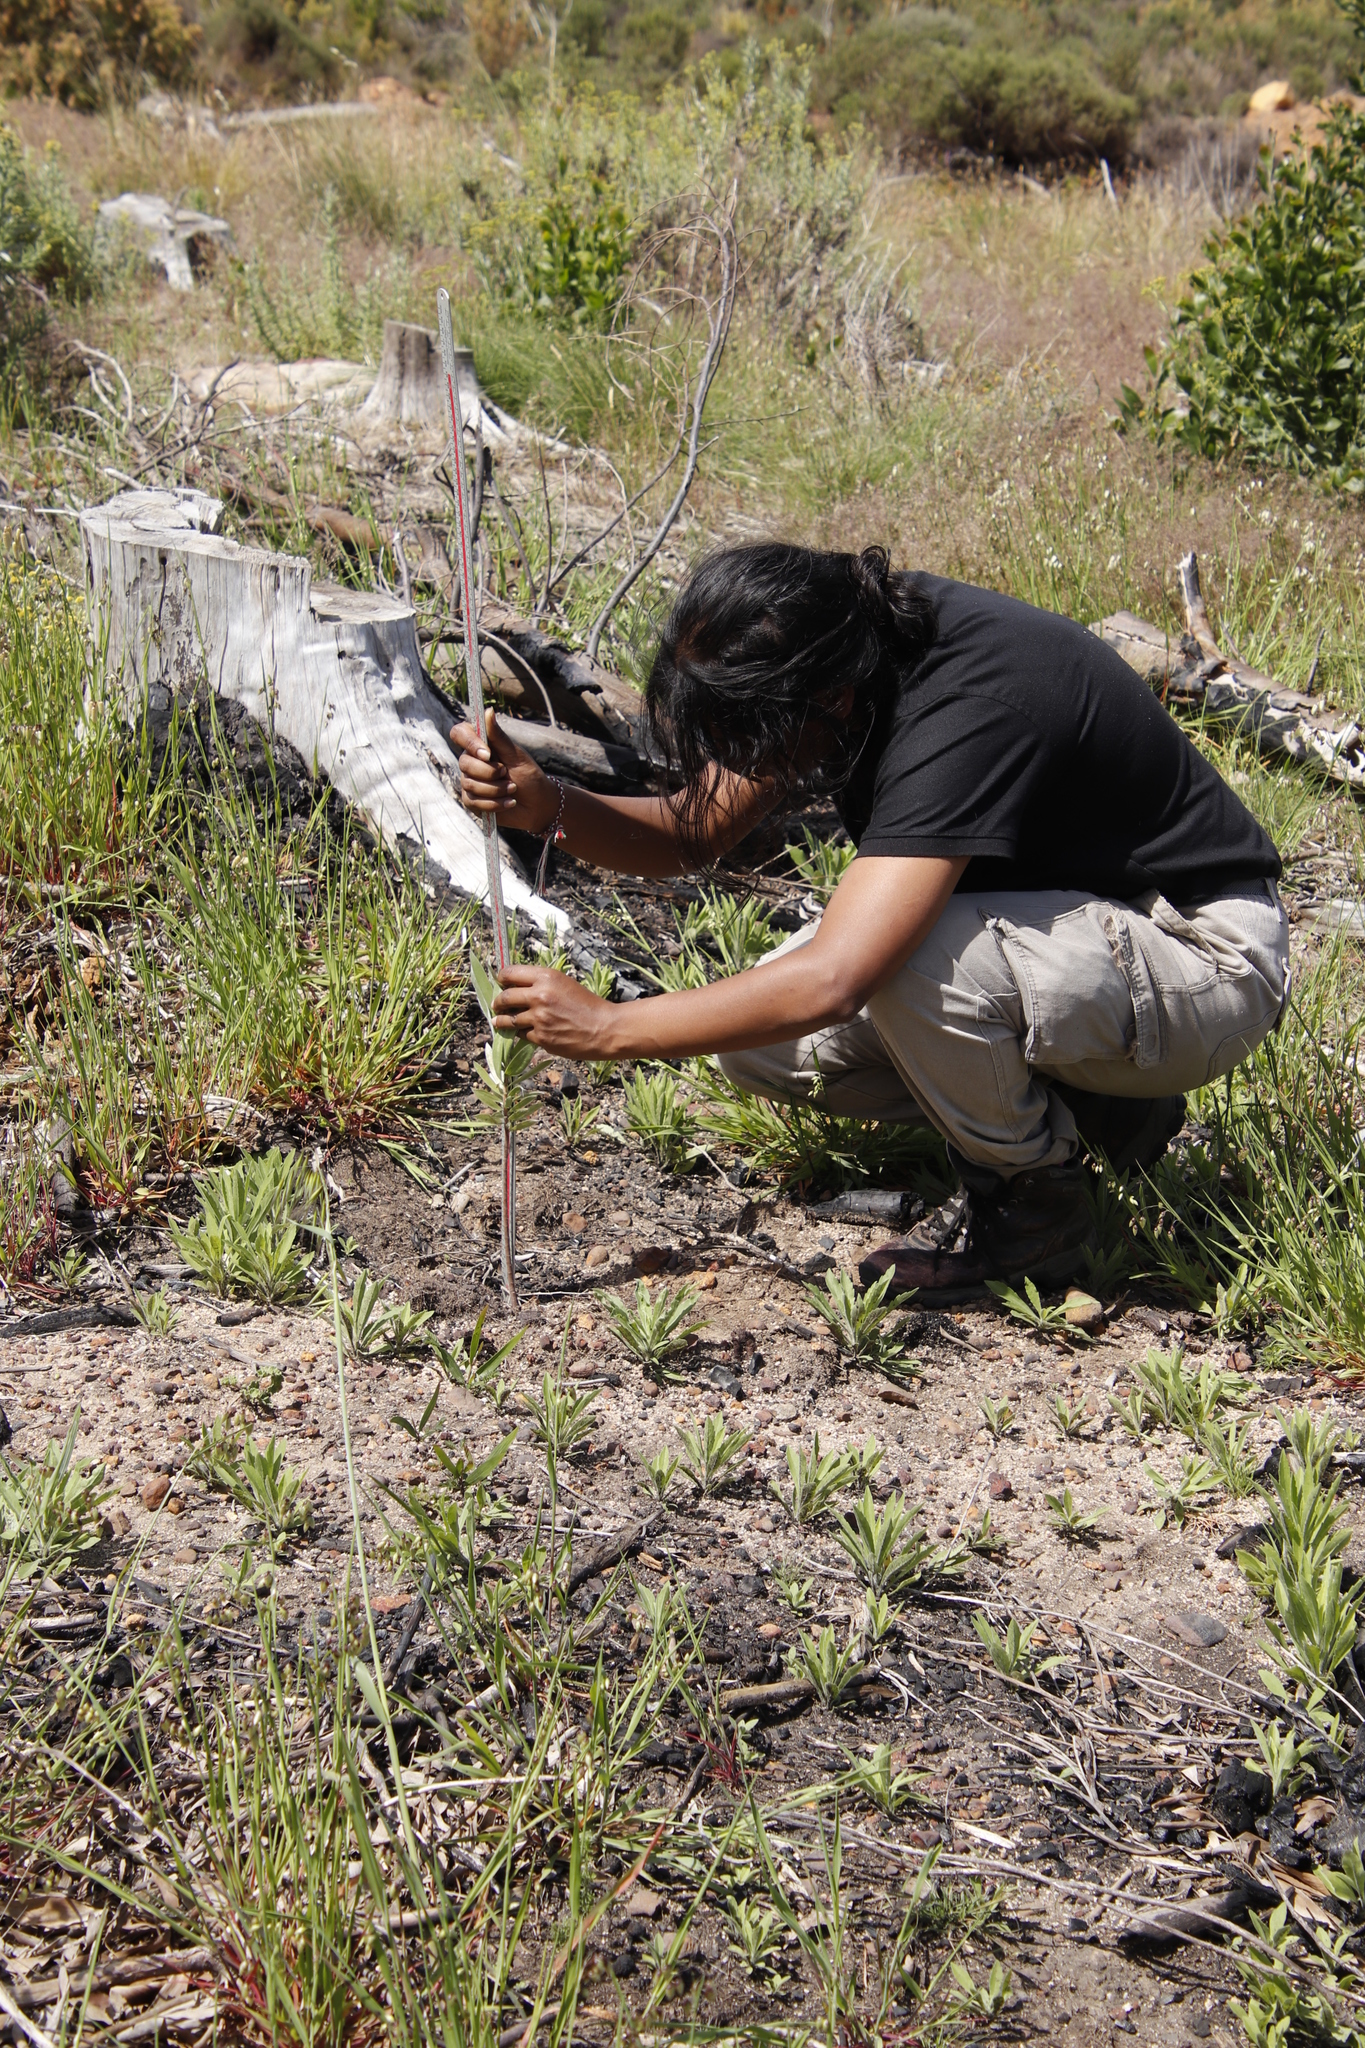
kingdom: Plantae
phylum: Tracheophyta
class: Magnoliopsida
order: Proteales
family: Proteaceae
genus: Leucadendron
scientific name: Leucadendron argenteum
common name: Cape silver tree
